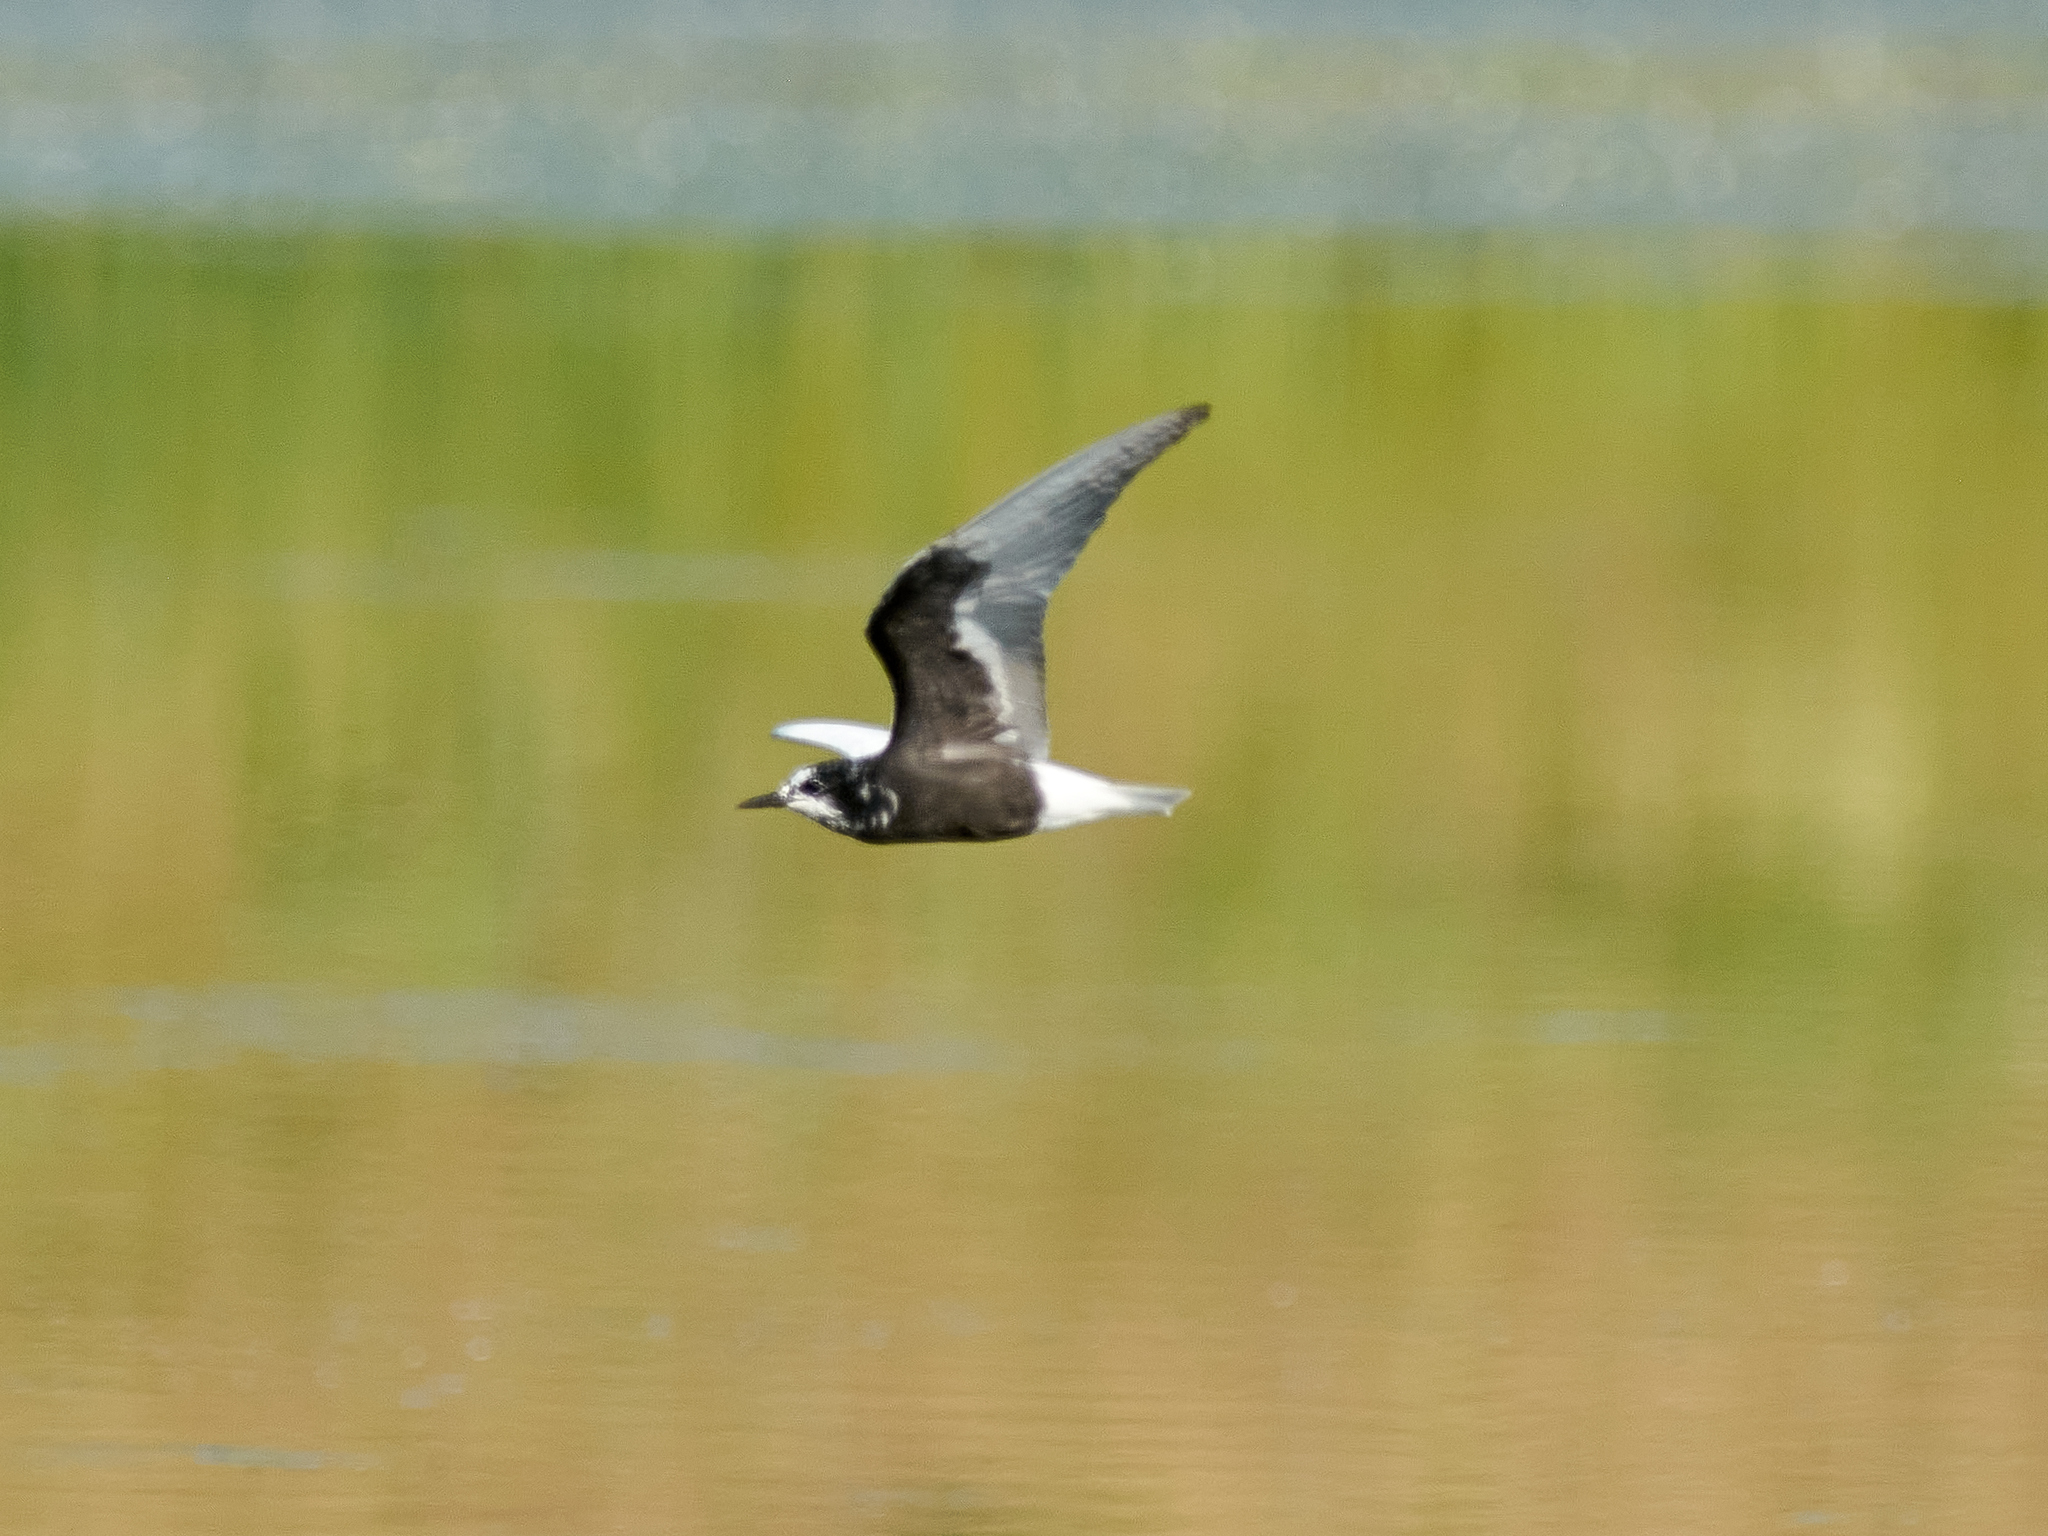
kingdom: Animalia
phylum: Chordata
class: Aves
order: Charadriiformes
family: Laridae
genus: Chlidonias
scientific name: Chlidonias leucopterus
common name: White-winged tern
